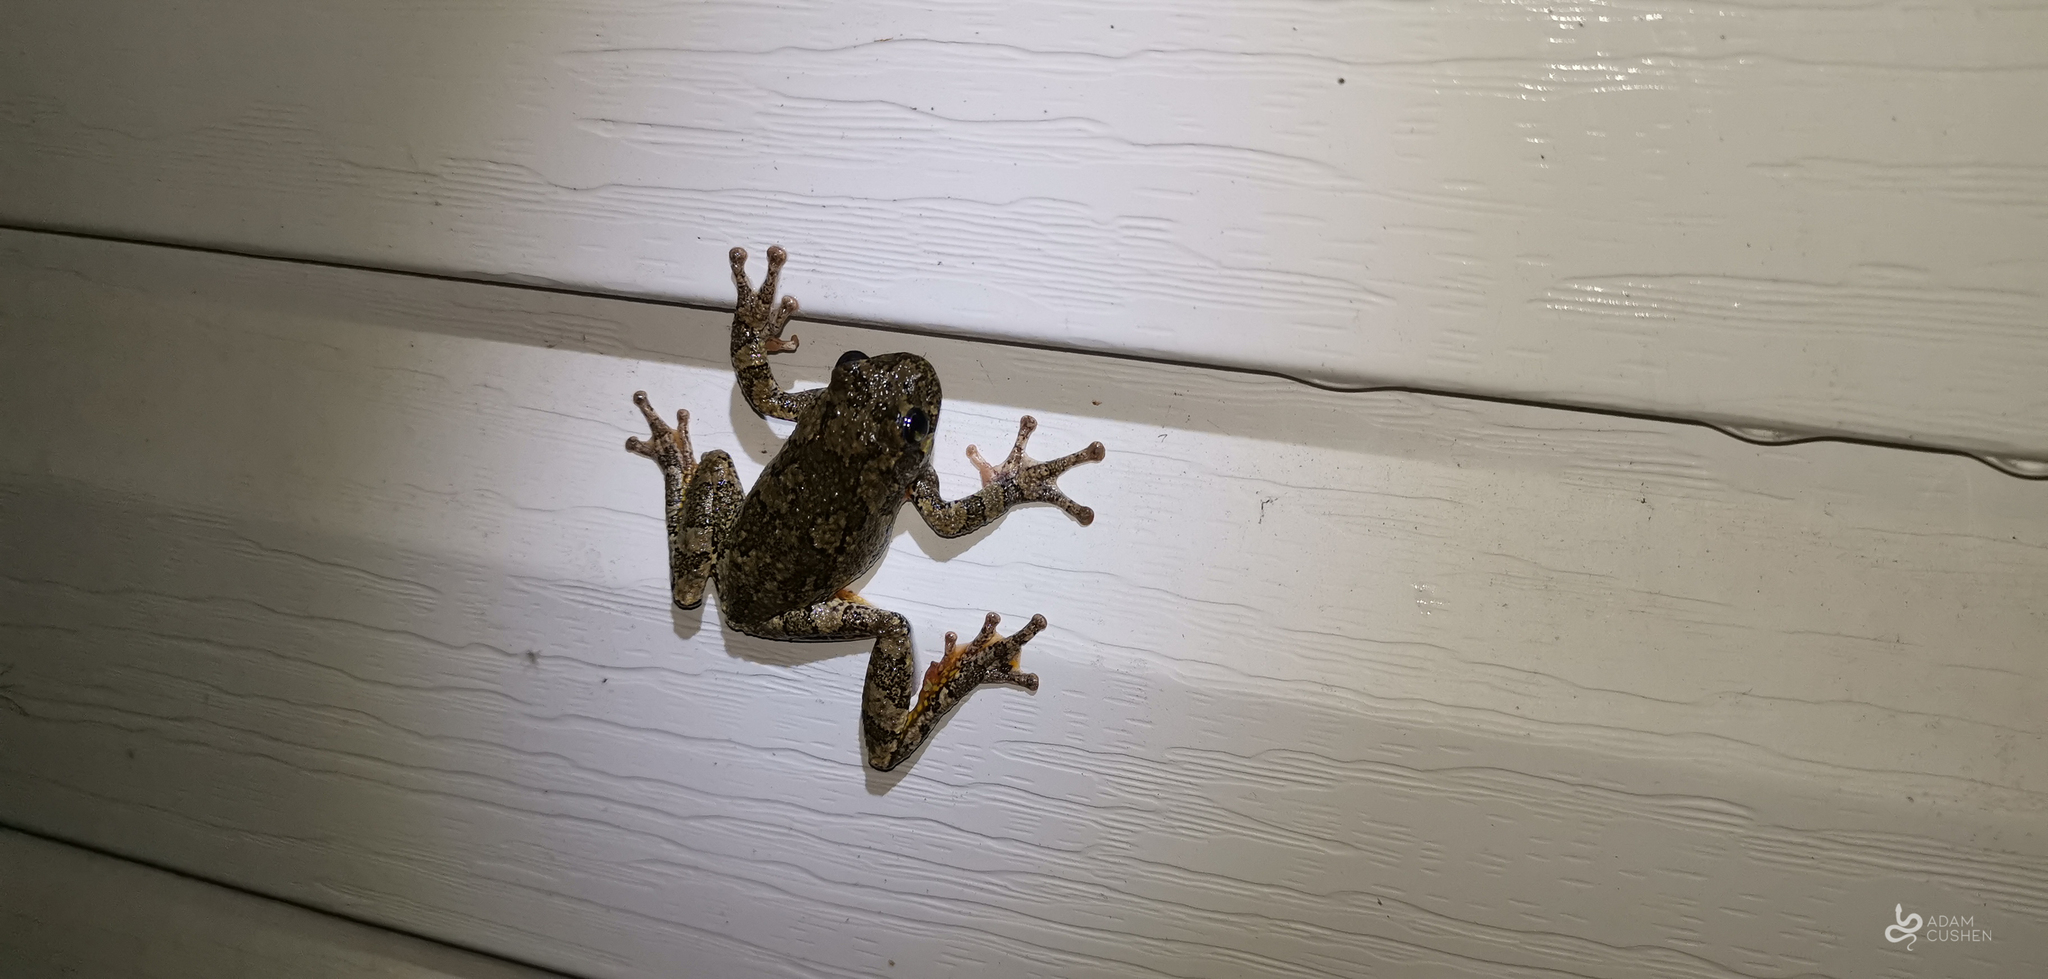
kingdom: Animalia
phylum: Chordata
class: Amphibia
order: Anura
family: Hylidae
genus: Dryophytes
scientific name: Dryophytes versicolor
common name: Gray treefrog
